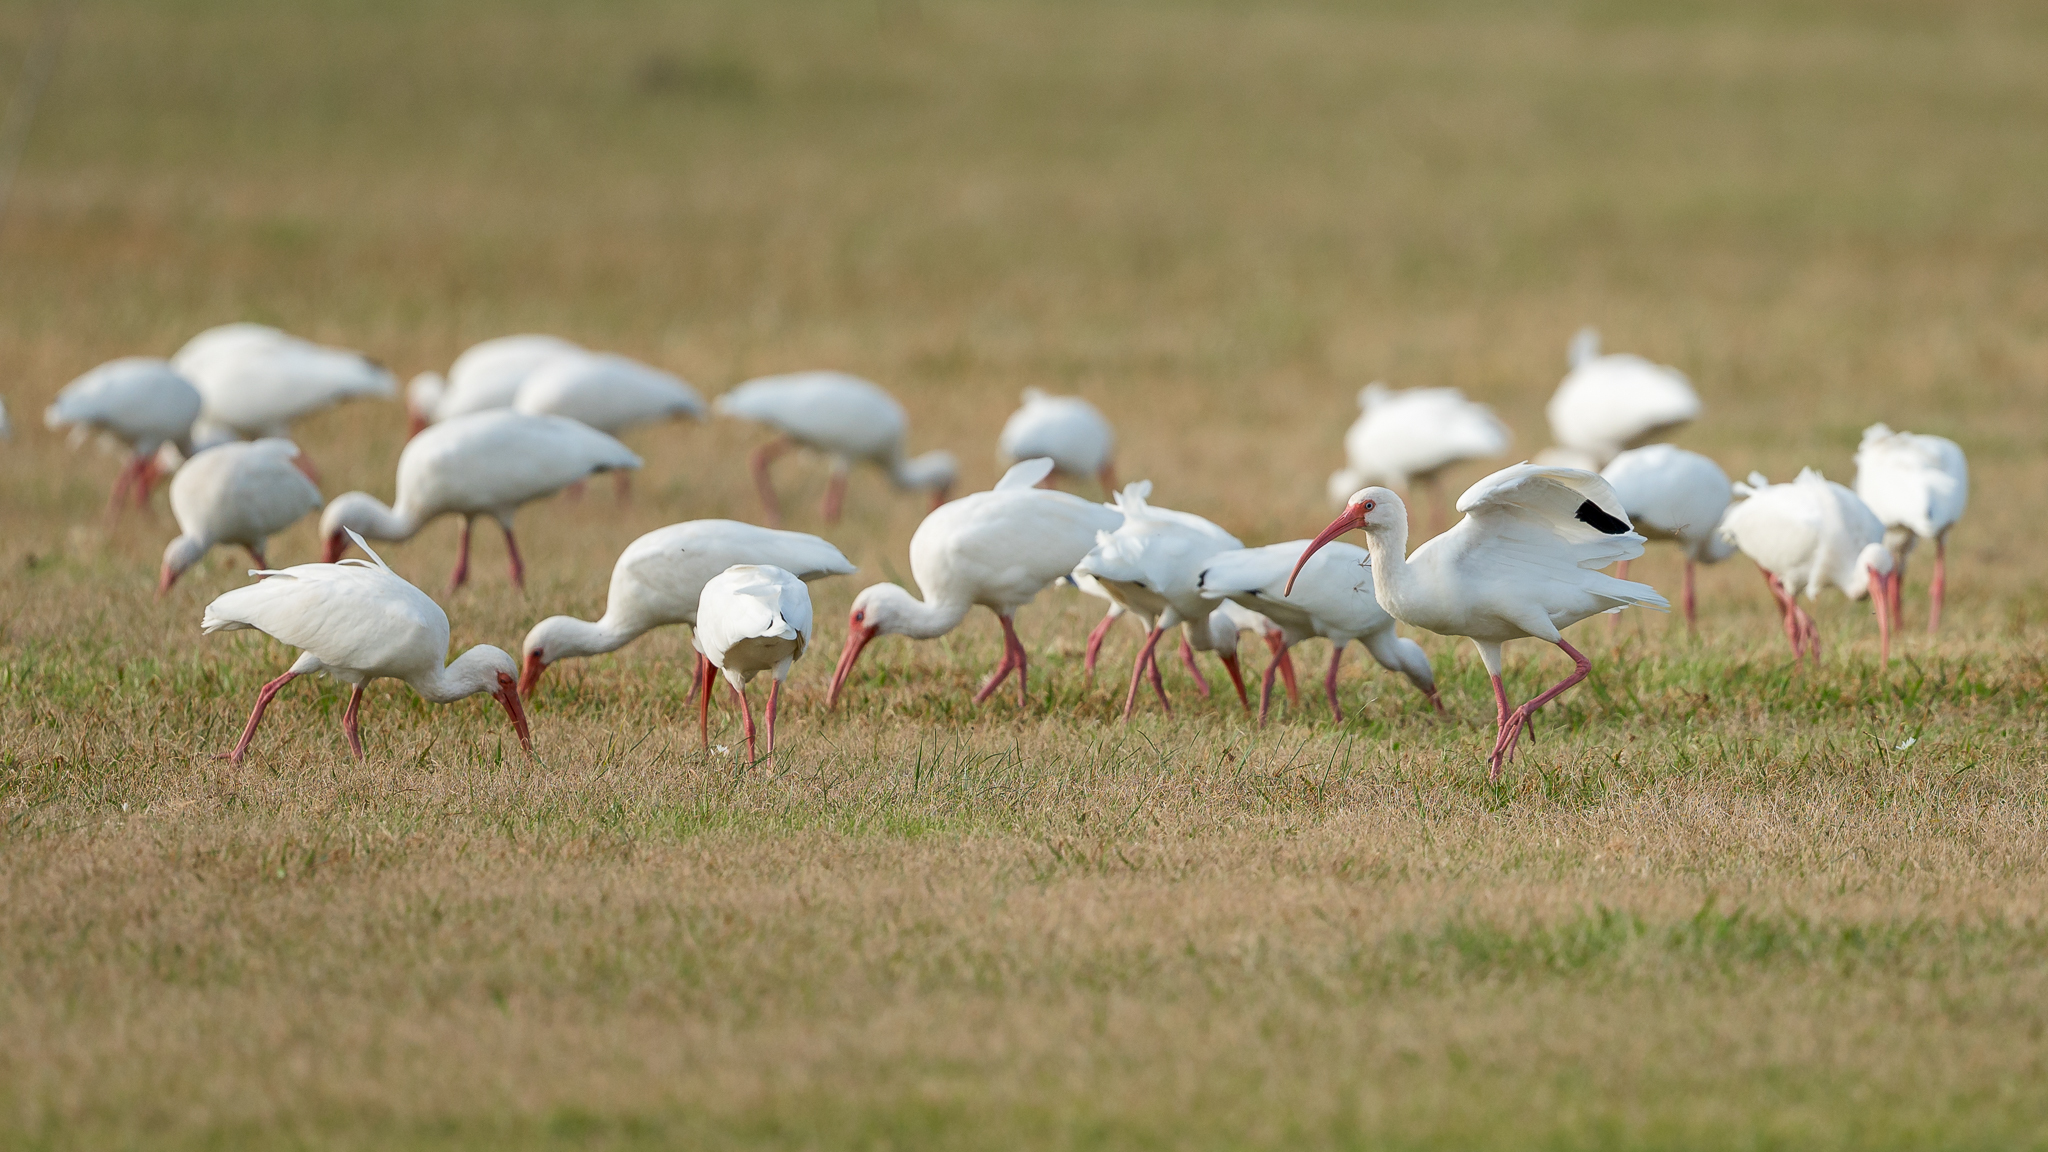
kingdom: Animalia
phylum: Chordata
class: Aves
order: Pelecaniformes
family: Threskiornithidae
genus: Eudocimus
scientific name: Eudocimus albus
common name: White ibis
